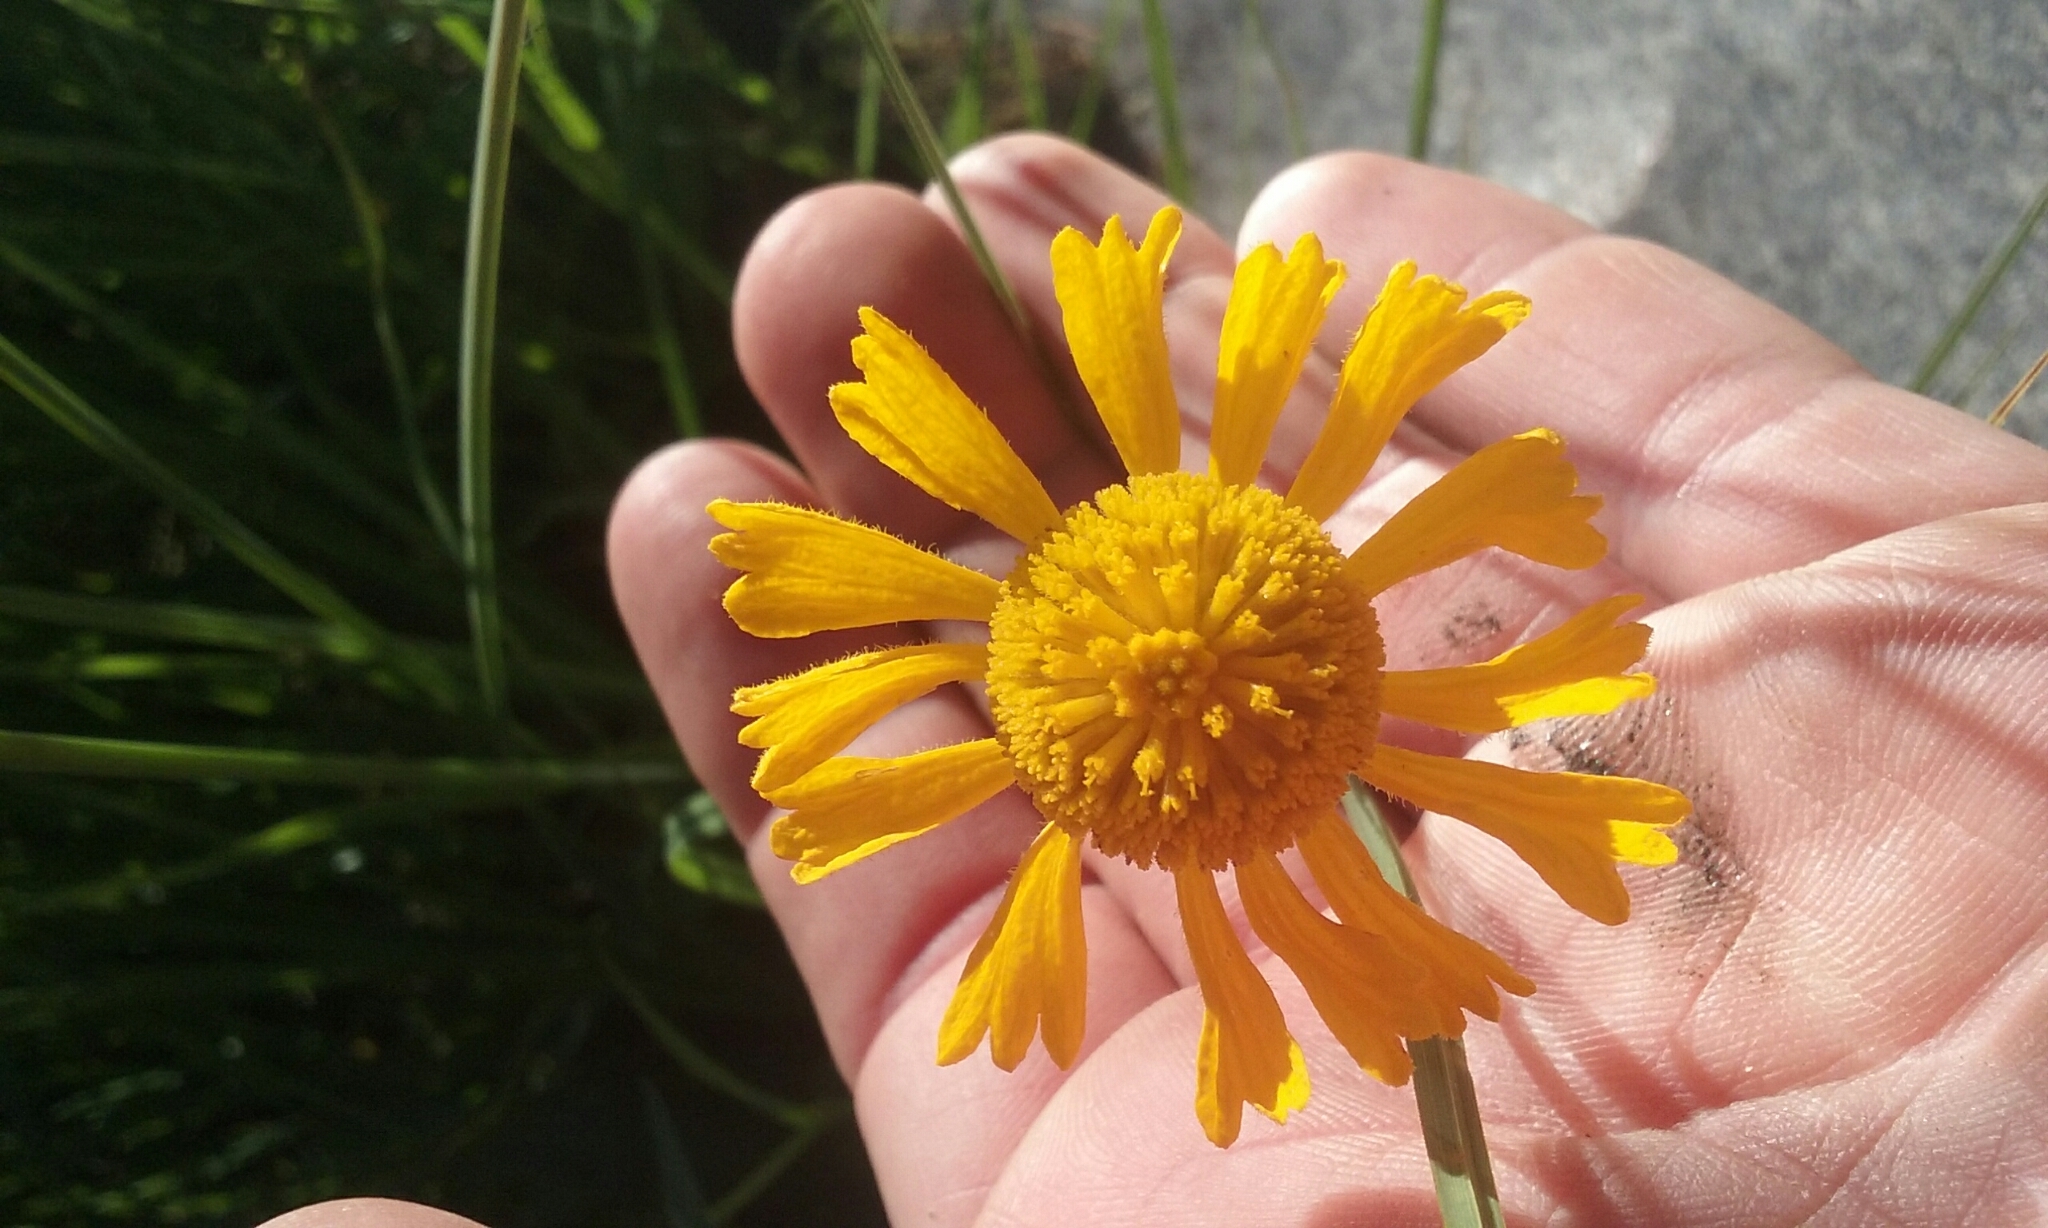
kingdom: Plantae
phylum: Tracheophyta
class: Magnoliopsida
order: Asterales
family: Asteraceae
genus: Helenium
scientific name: Helenium bigelovii
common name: Bigelow's sneezeweed
